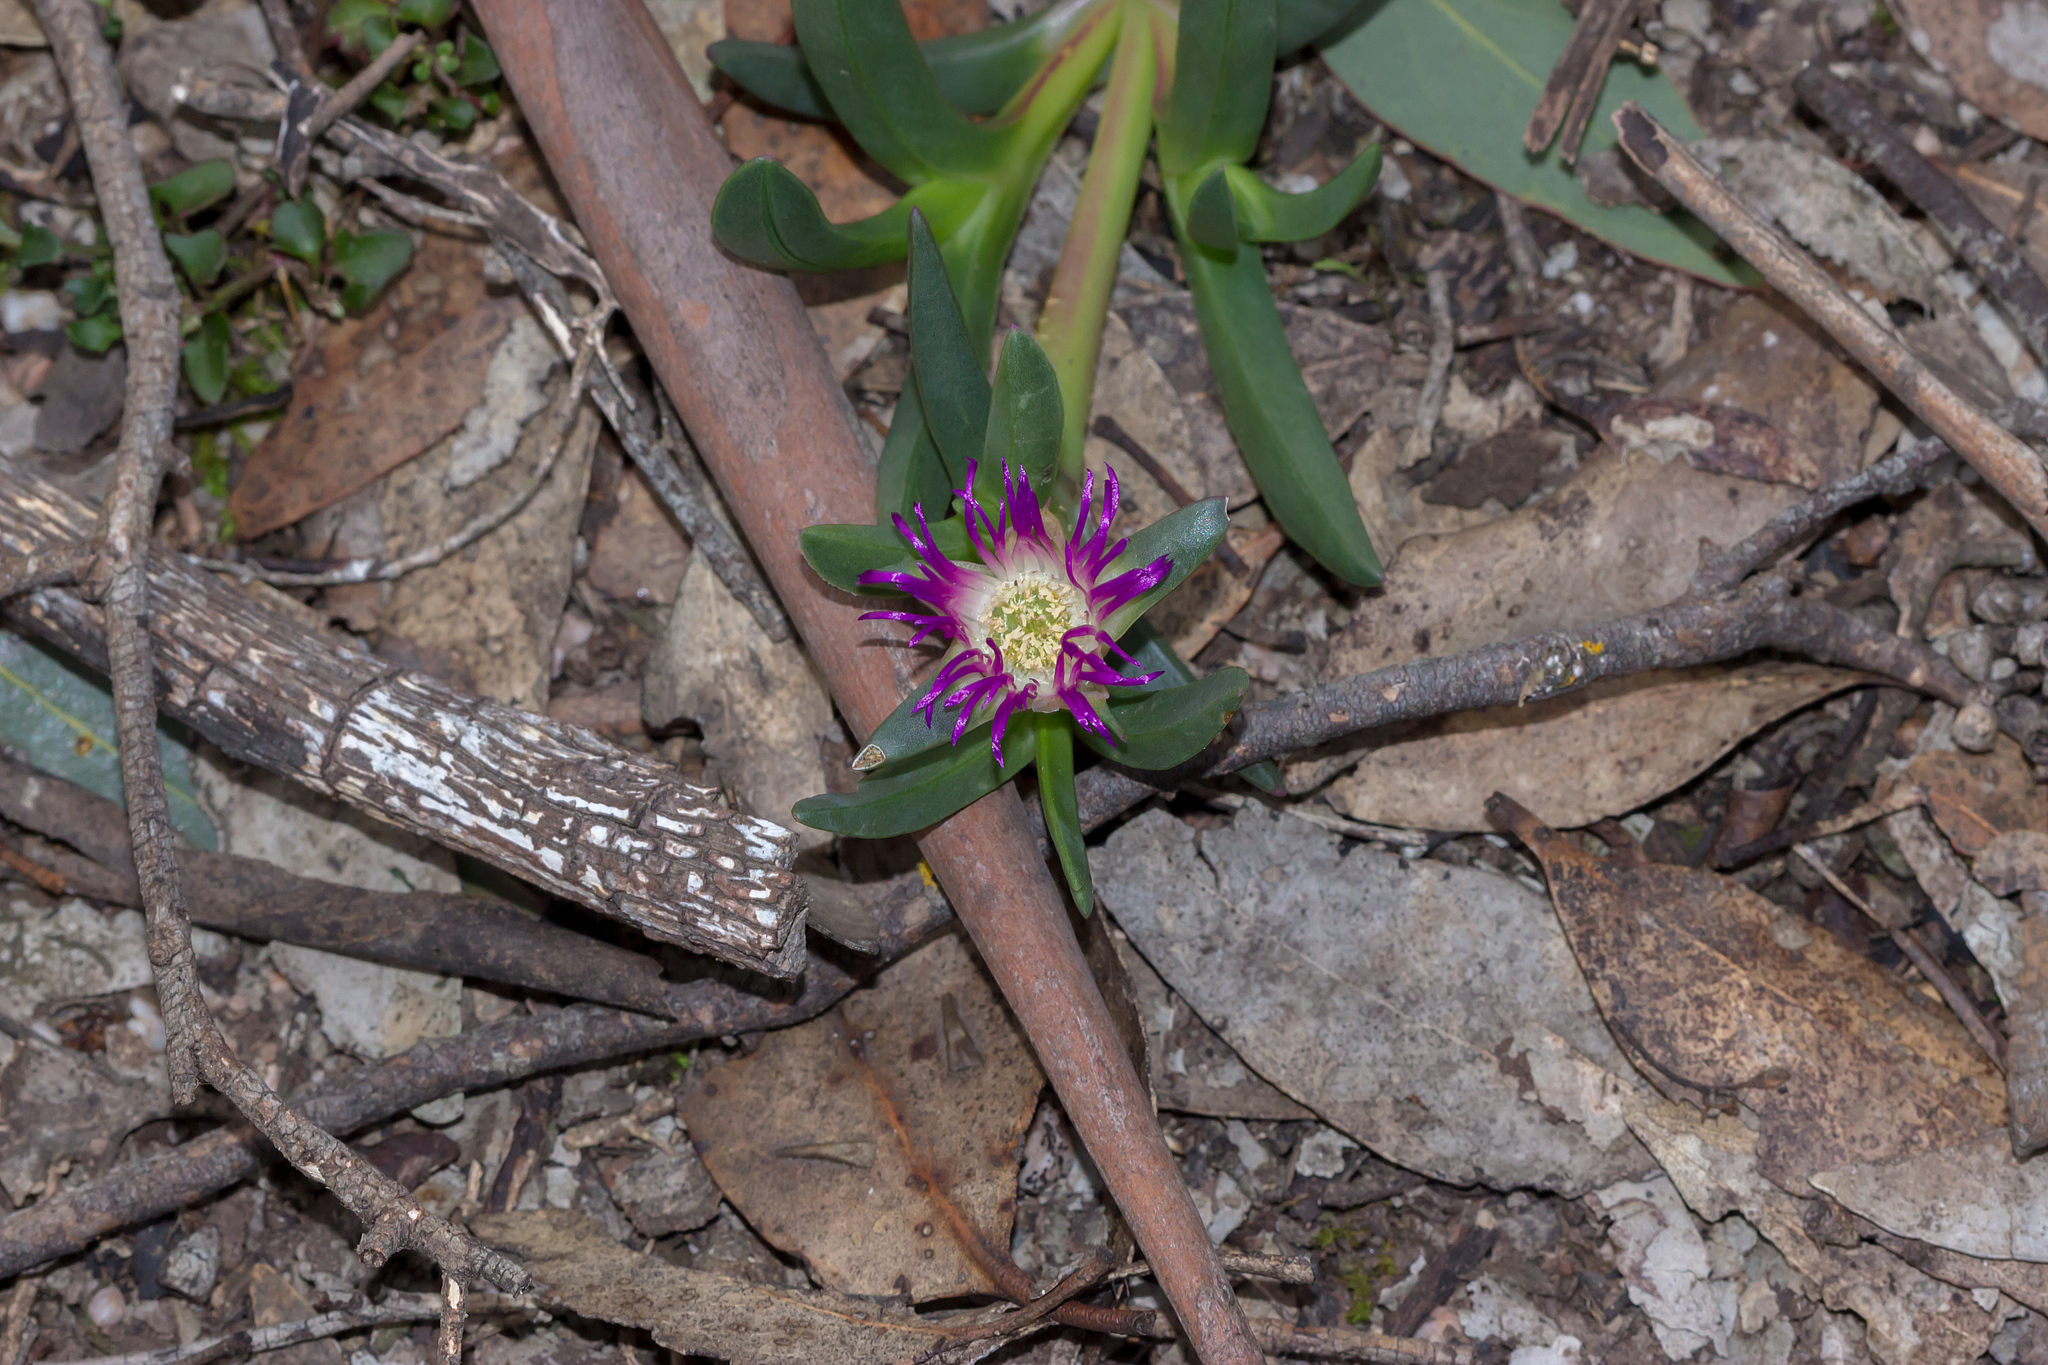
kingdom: Plantae
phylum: Tracheophyta
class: Magnoliopsida
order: Caryophyllales
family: Aizoaceae
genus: Carpobrotus
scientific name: Carpobrotus modestus
